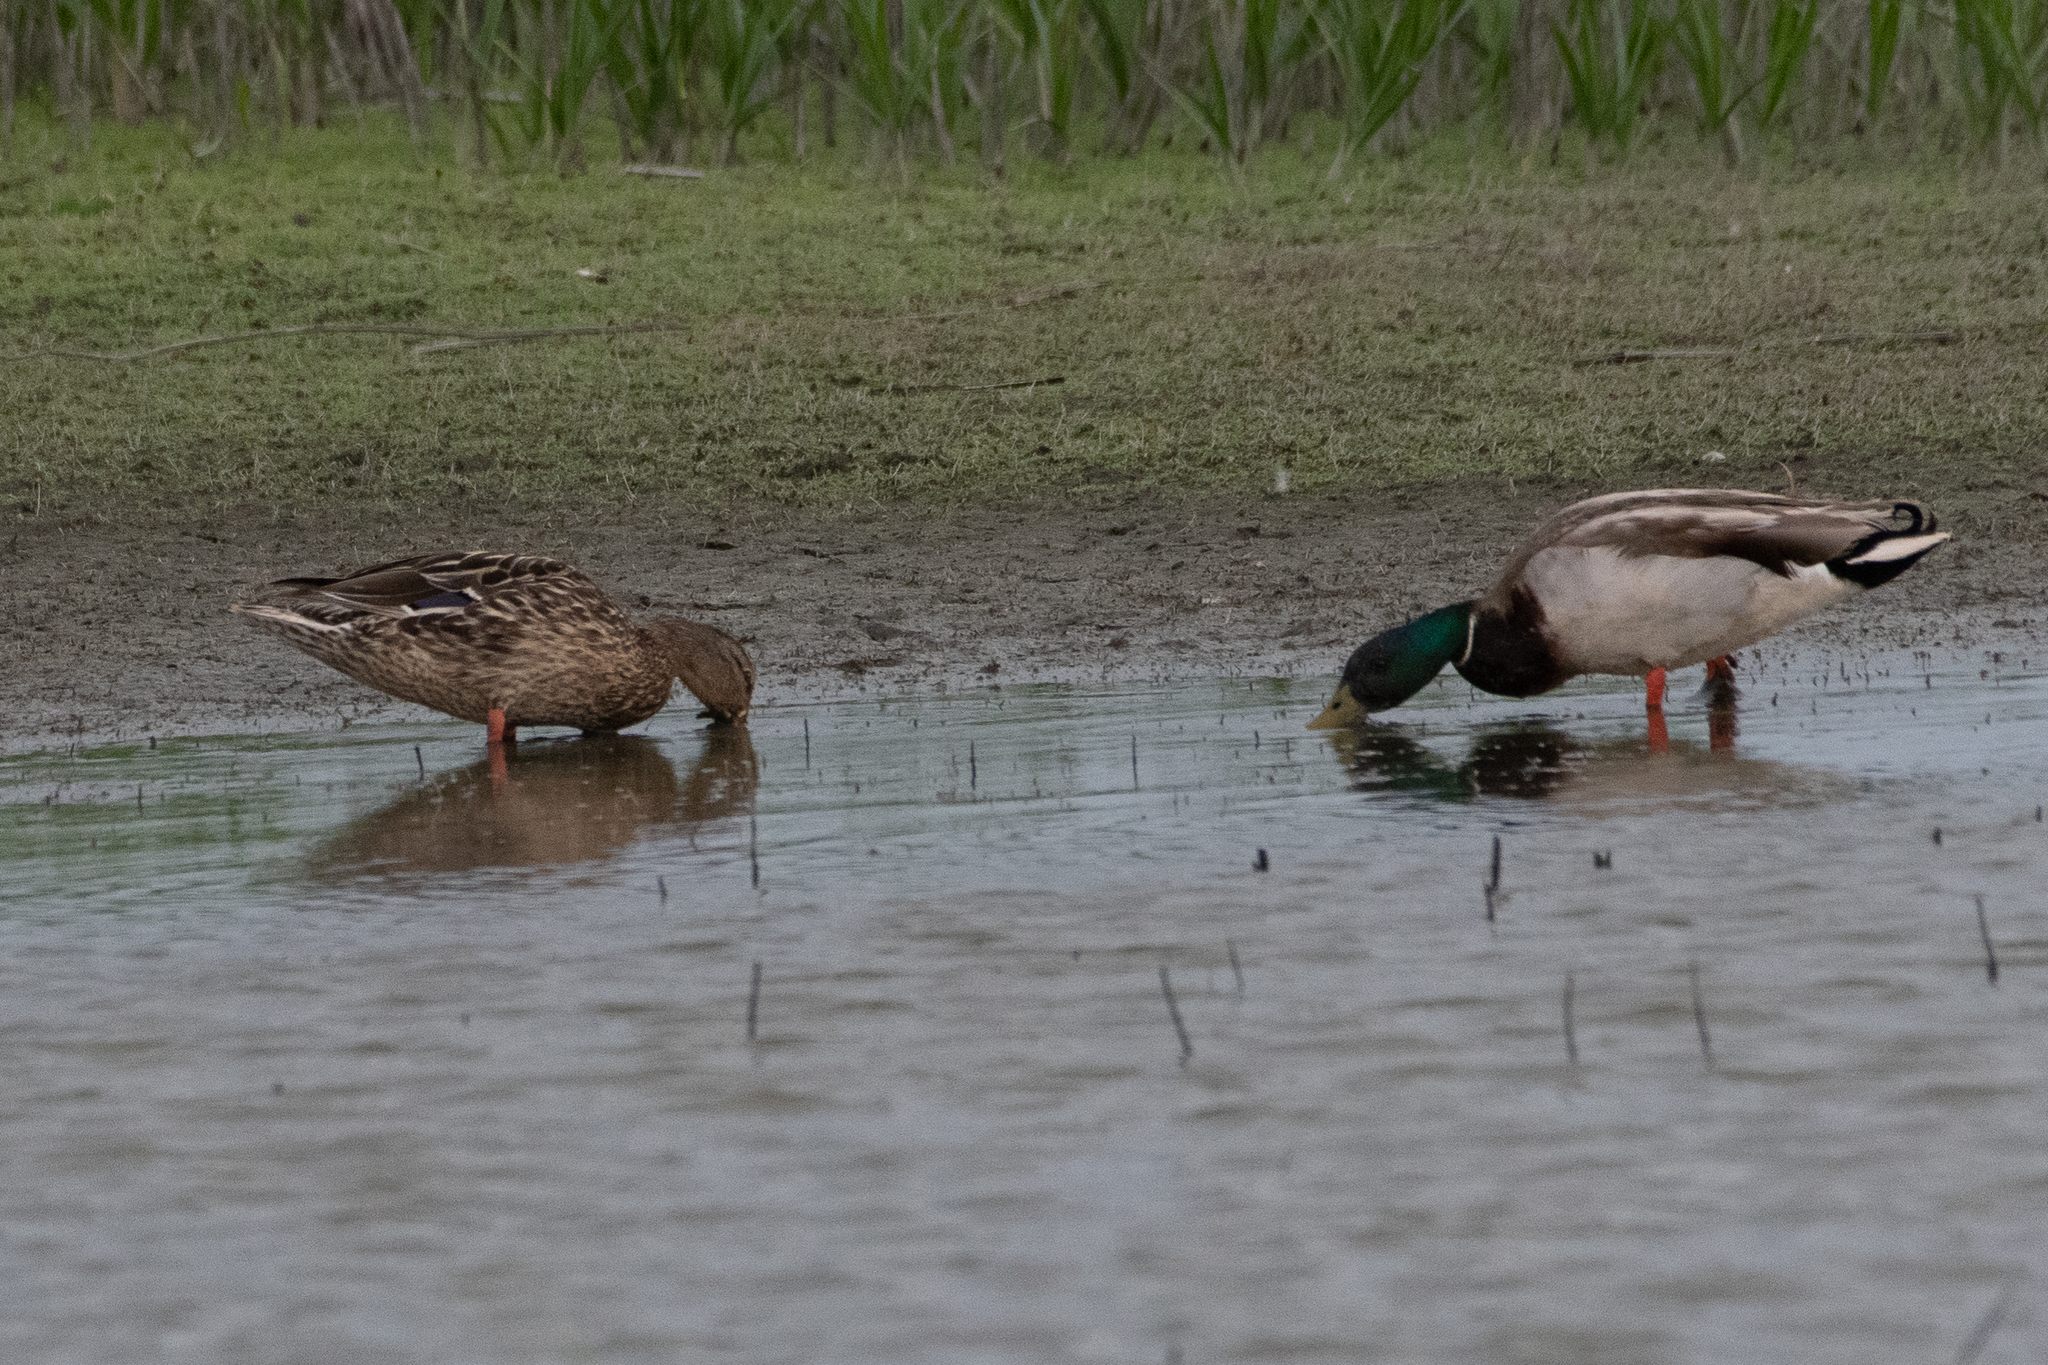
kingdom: Animalia
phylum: Chordata
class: Aves
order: Anseriformes
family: Anatidae
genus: Anas
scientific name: Anas platyrhynchos
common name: Mallard
